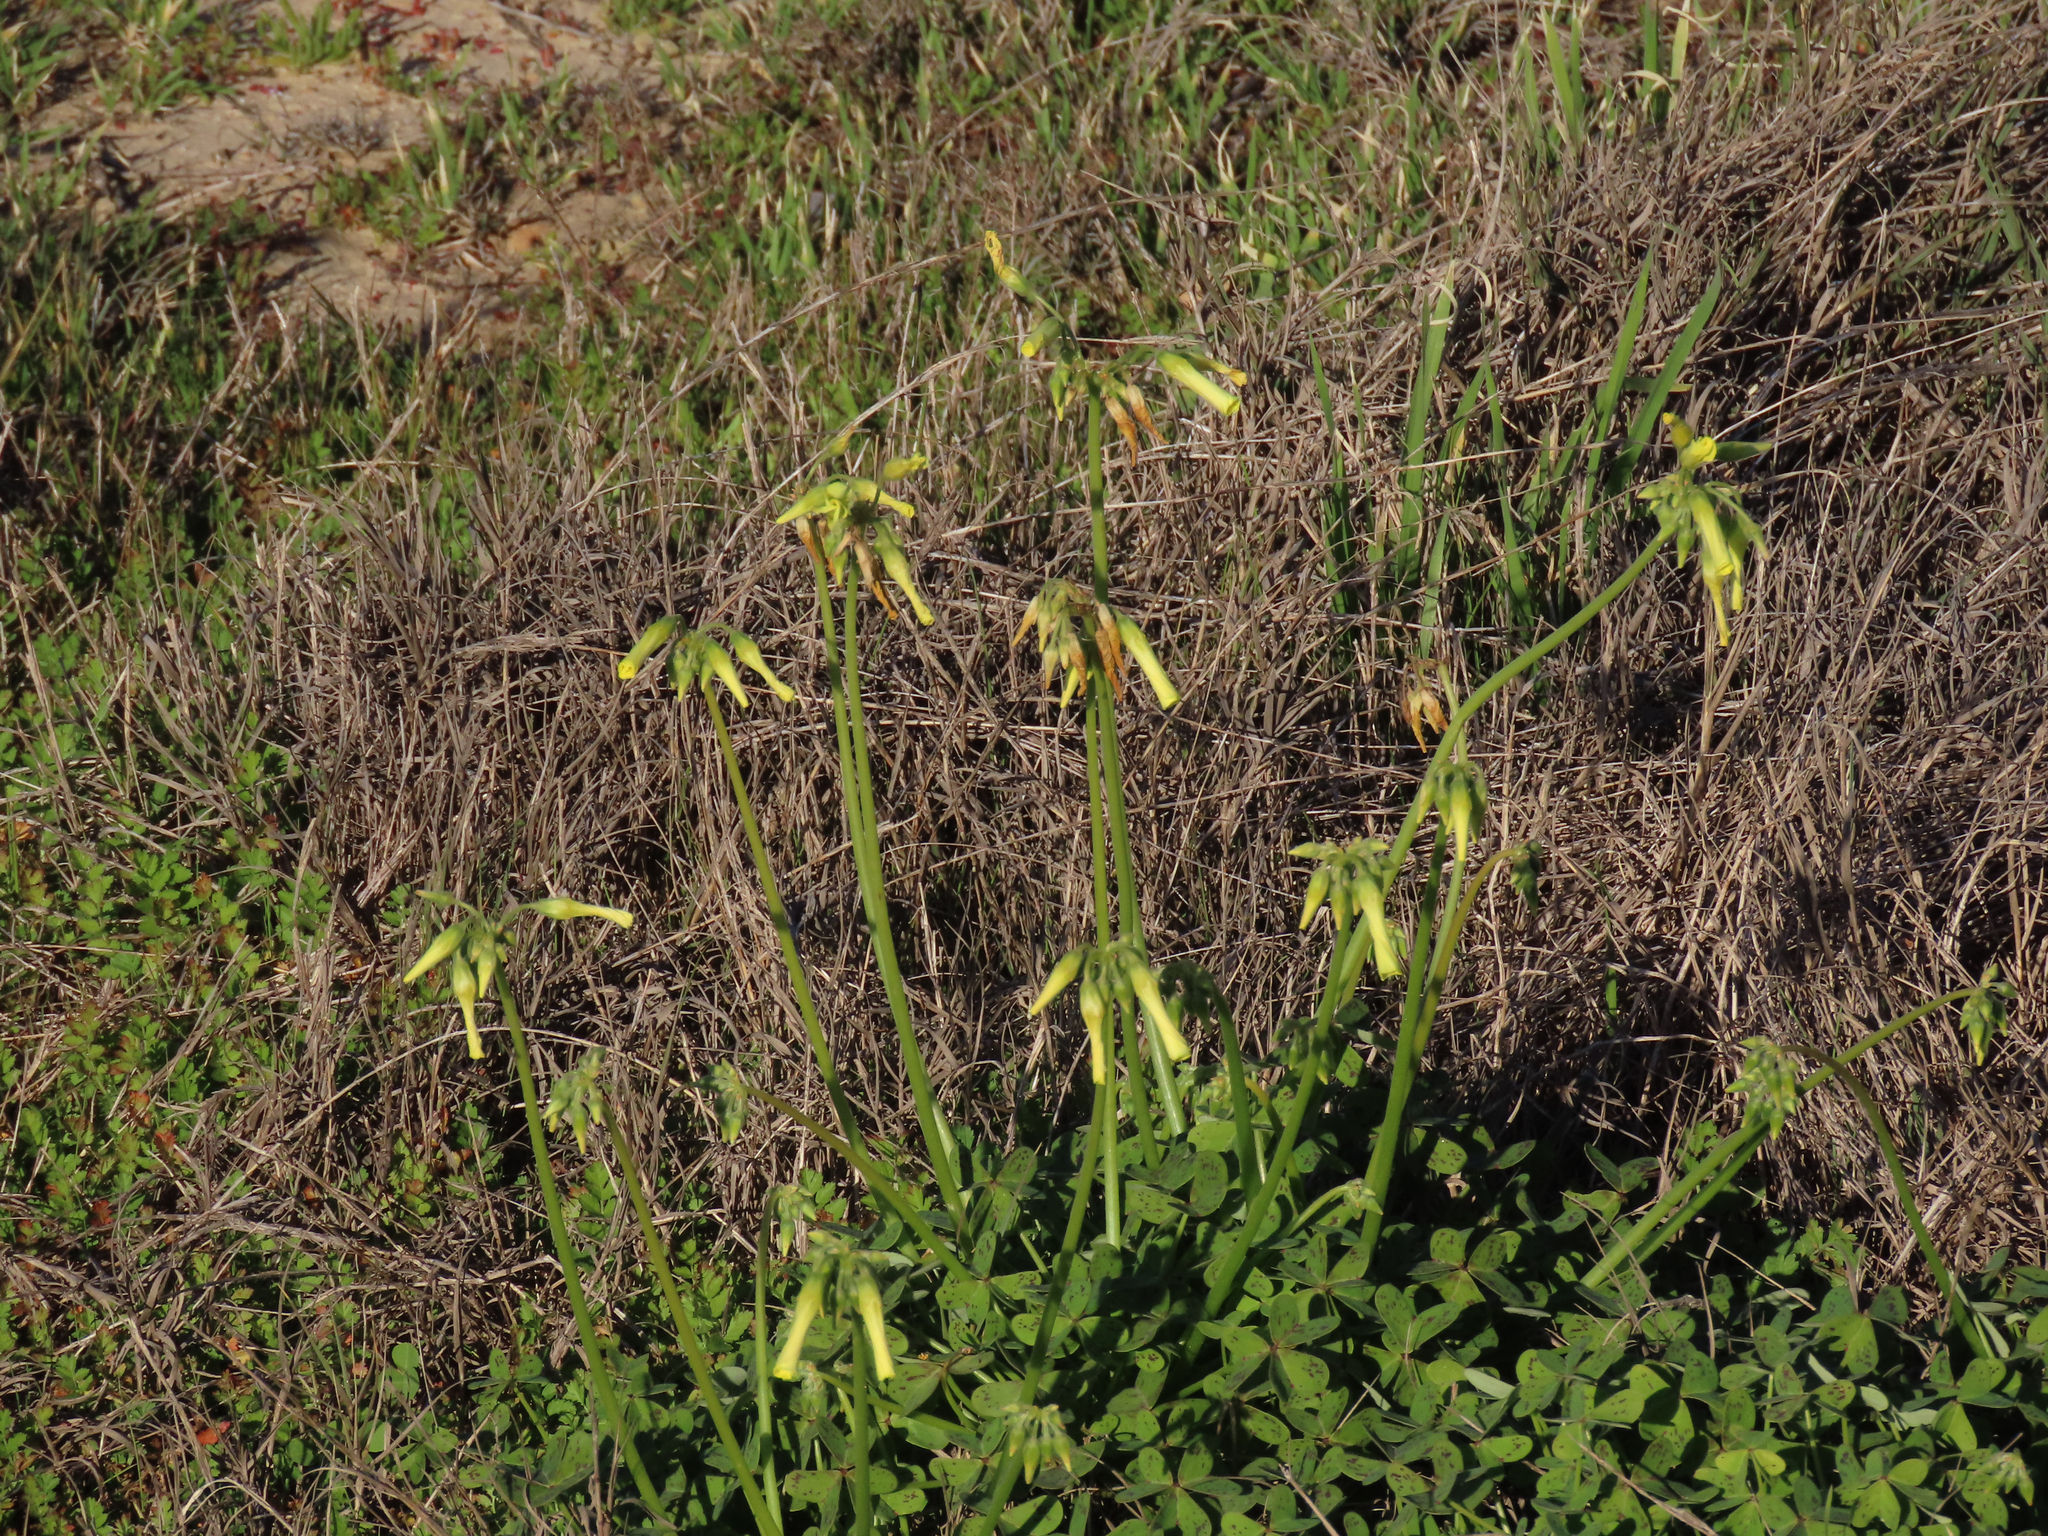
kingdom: Plantae
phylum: Tracheophyta
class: Magnoliopsida
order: Oxalidales
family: Oxalidaceae
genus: Oxalis
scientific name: Oxalis pes-caprae
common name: Bermuda-buttercup
